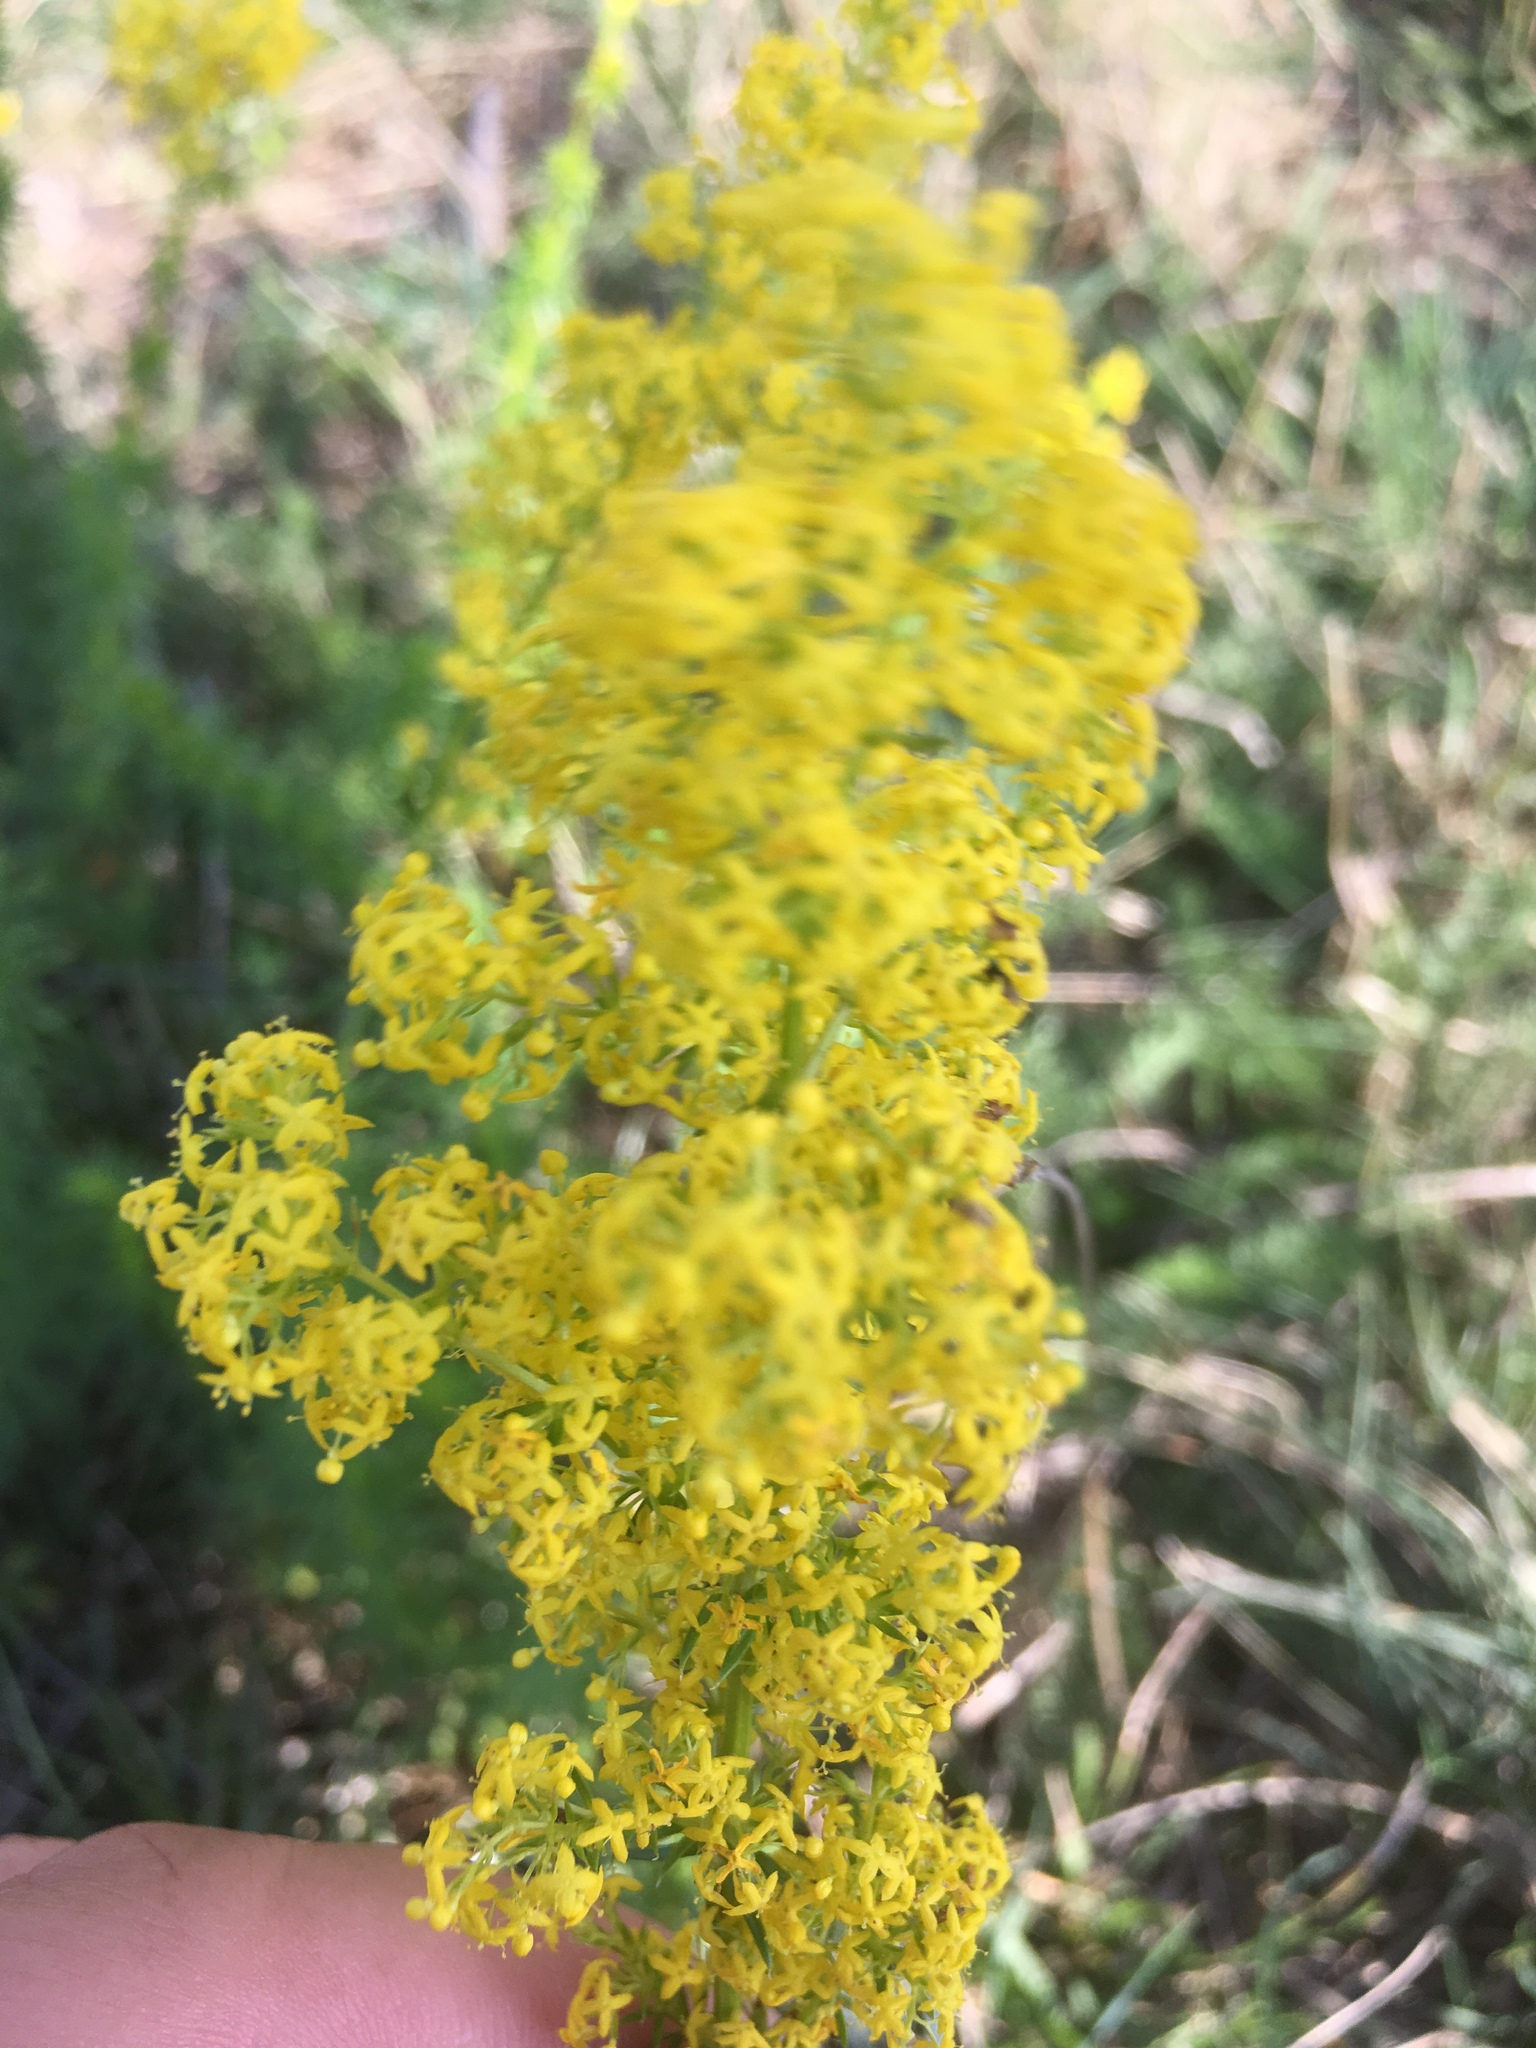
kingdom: Plantae
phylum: Tracheophyta
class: Magnoliopsida
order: Gentianales
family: Rubiaceae
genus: Galium
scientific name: Galium verum
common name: Lady's bedstraw
